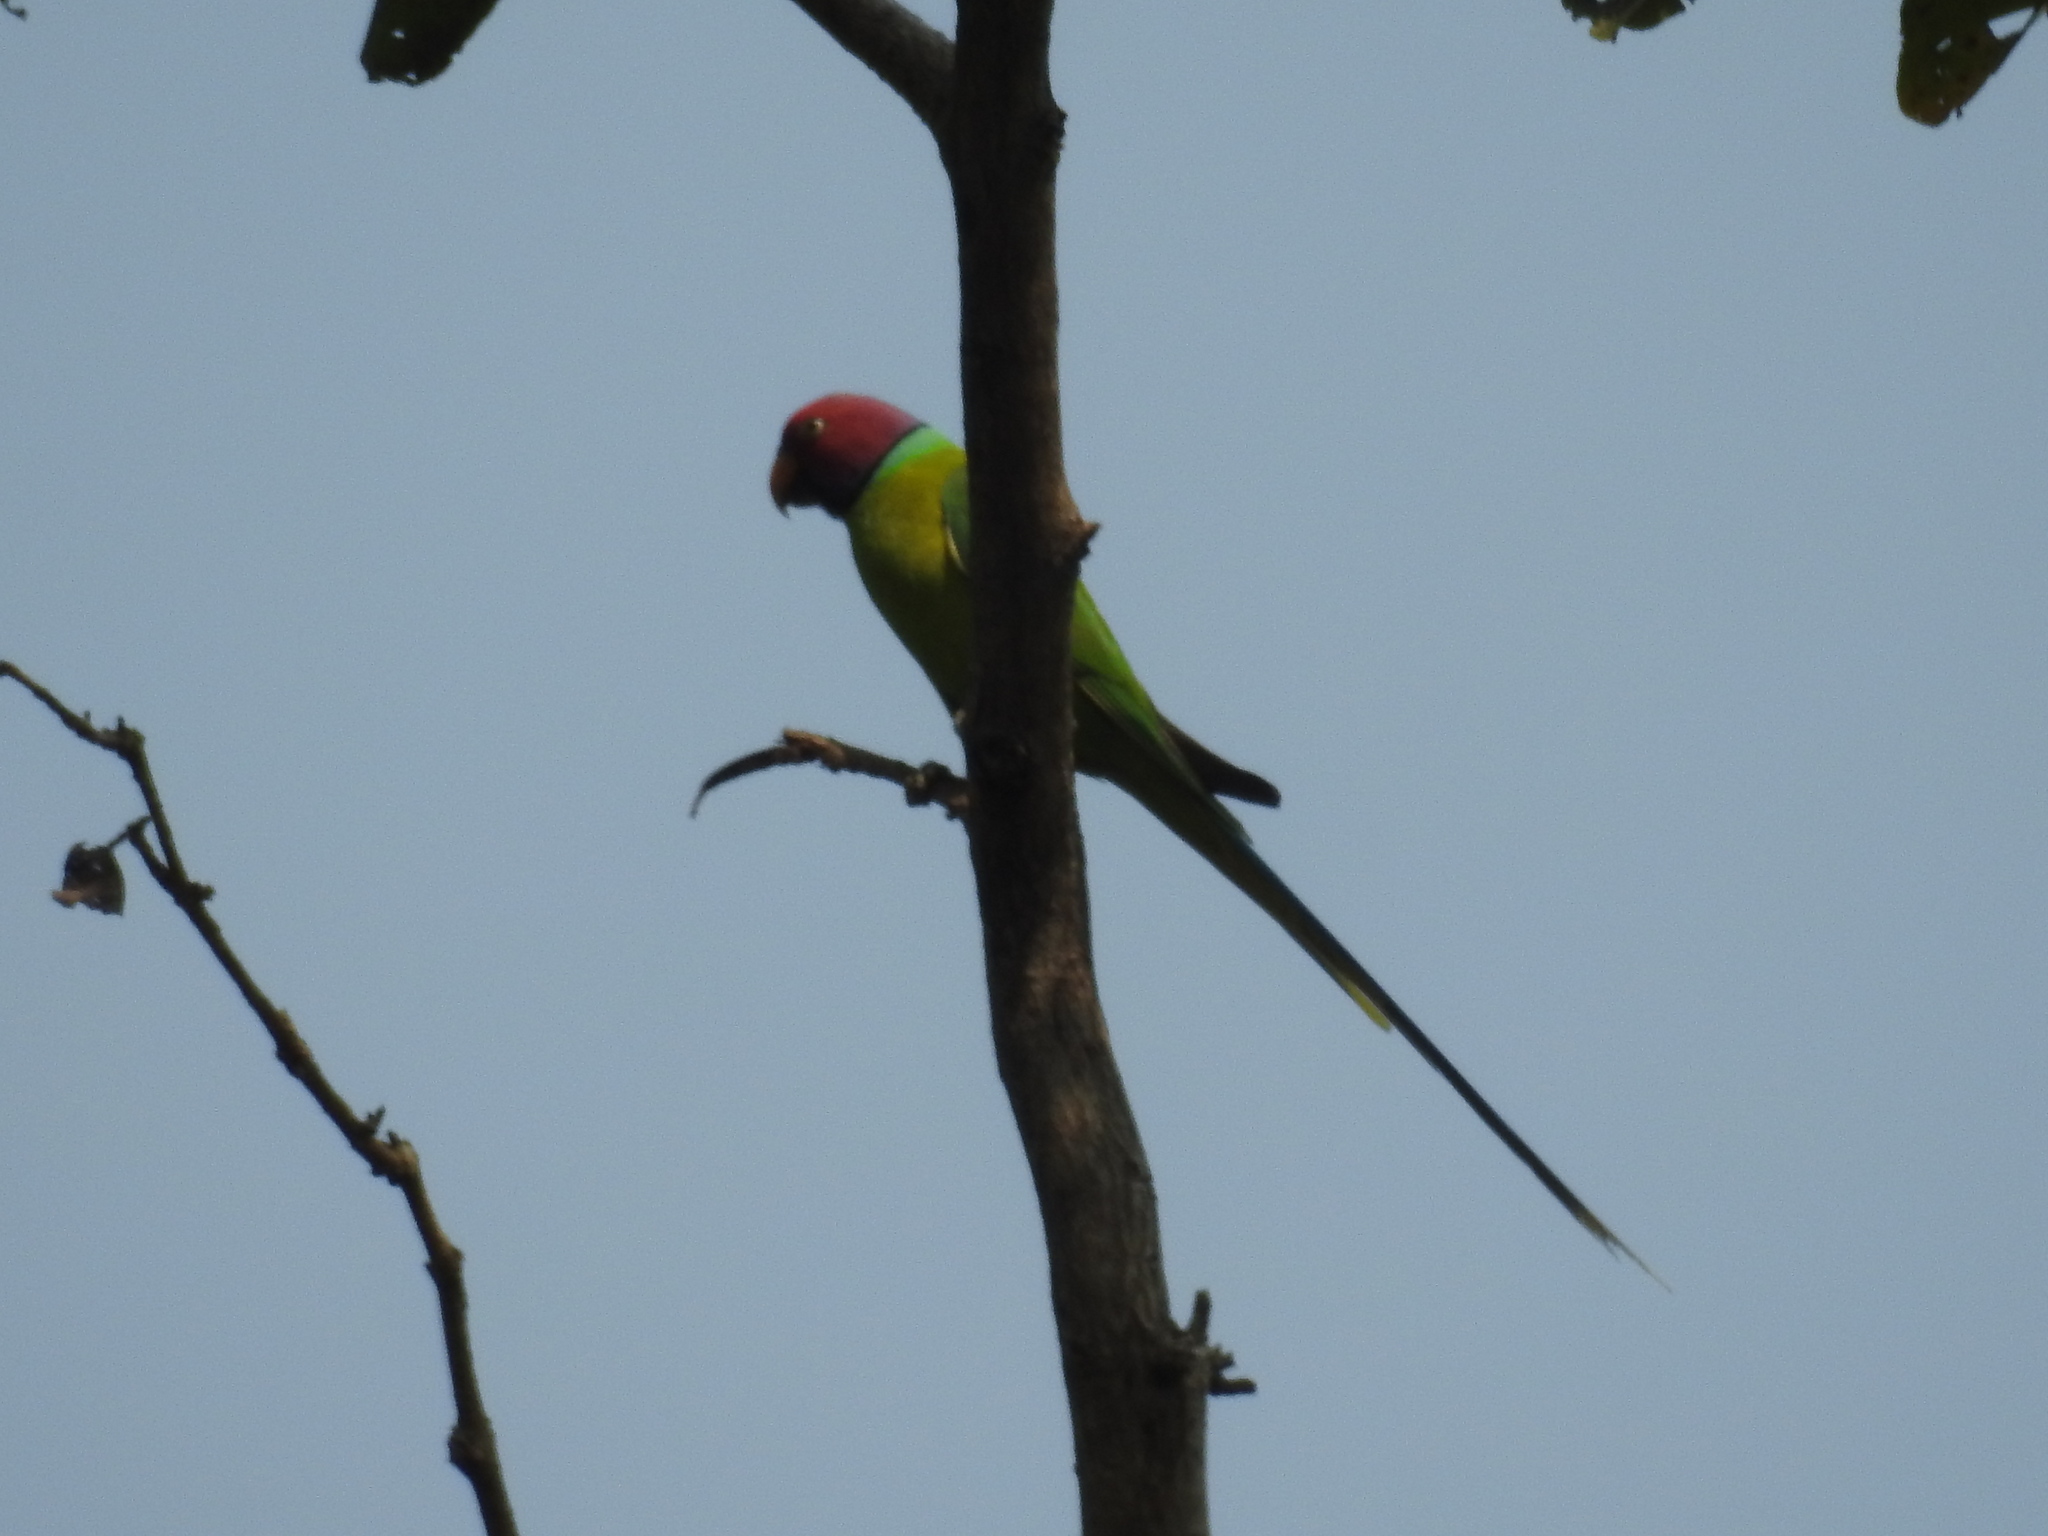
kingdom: Animalia
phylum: Chordata
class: Aves
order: Psittaciformes
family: Psittacidae
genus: Psittacula
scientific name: Psittacula cyanocephala
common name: Plum-headed parakeet
